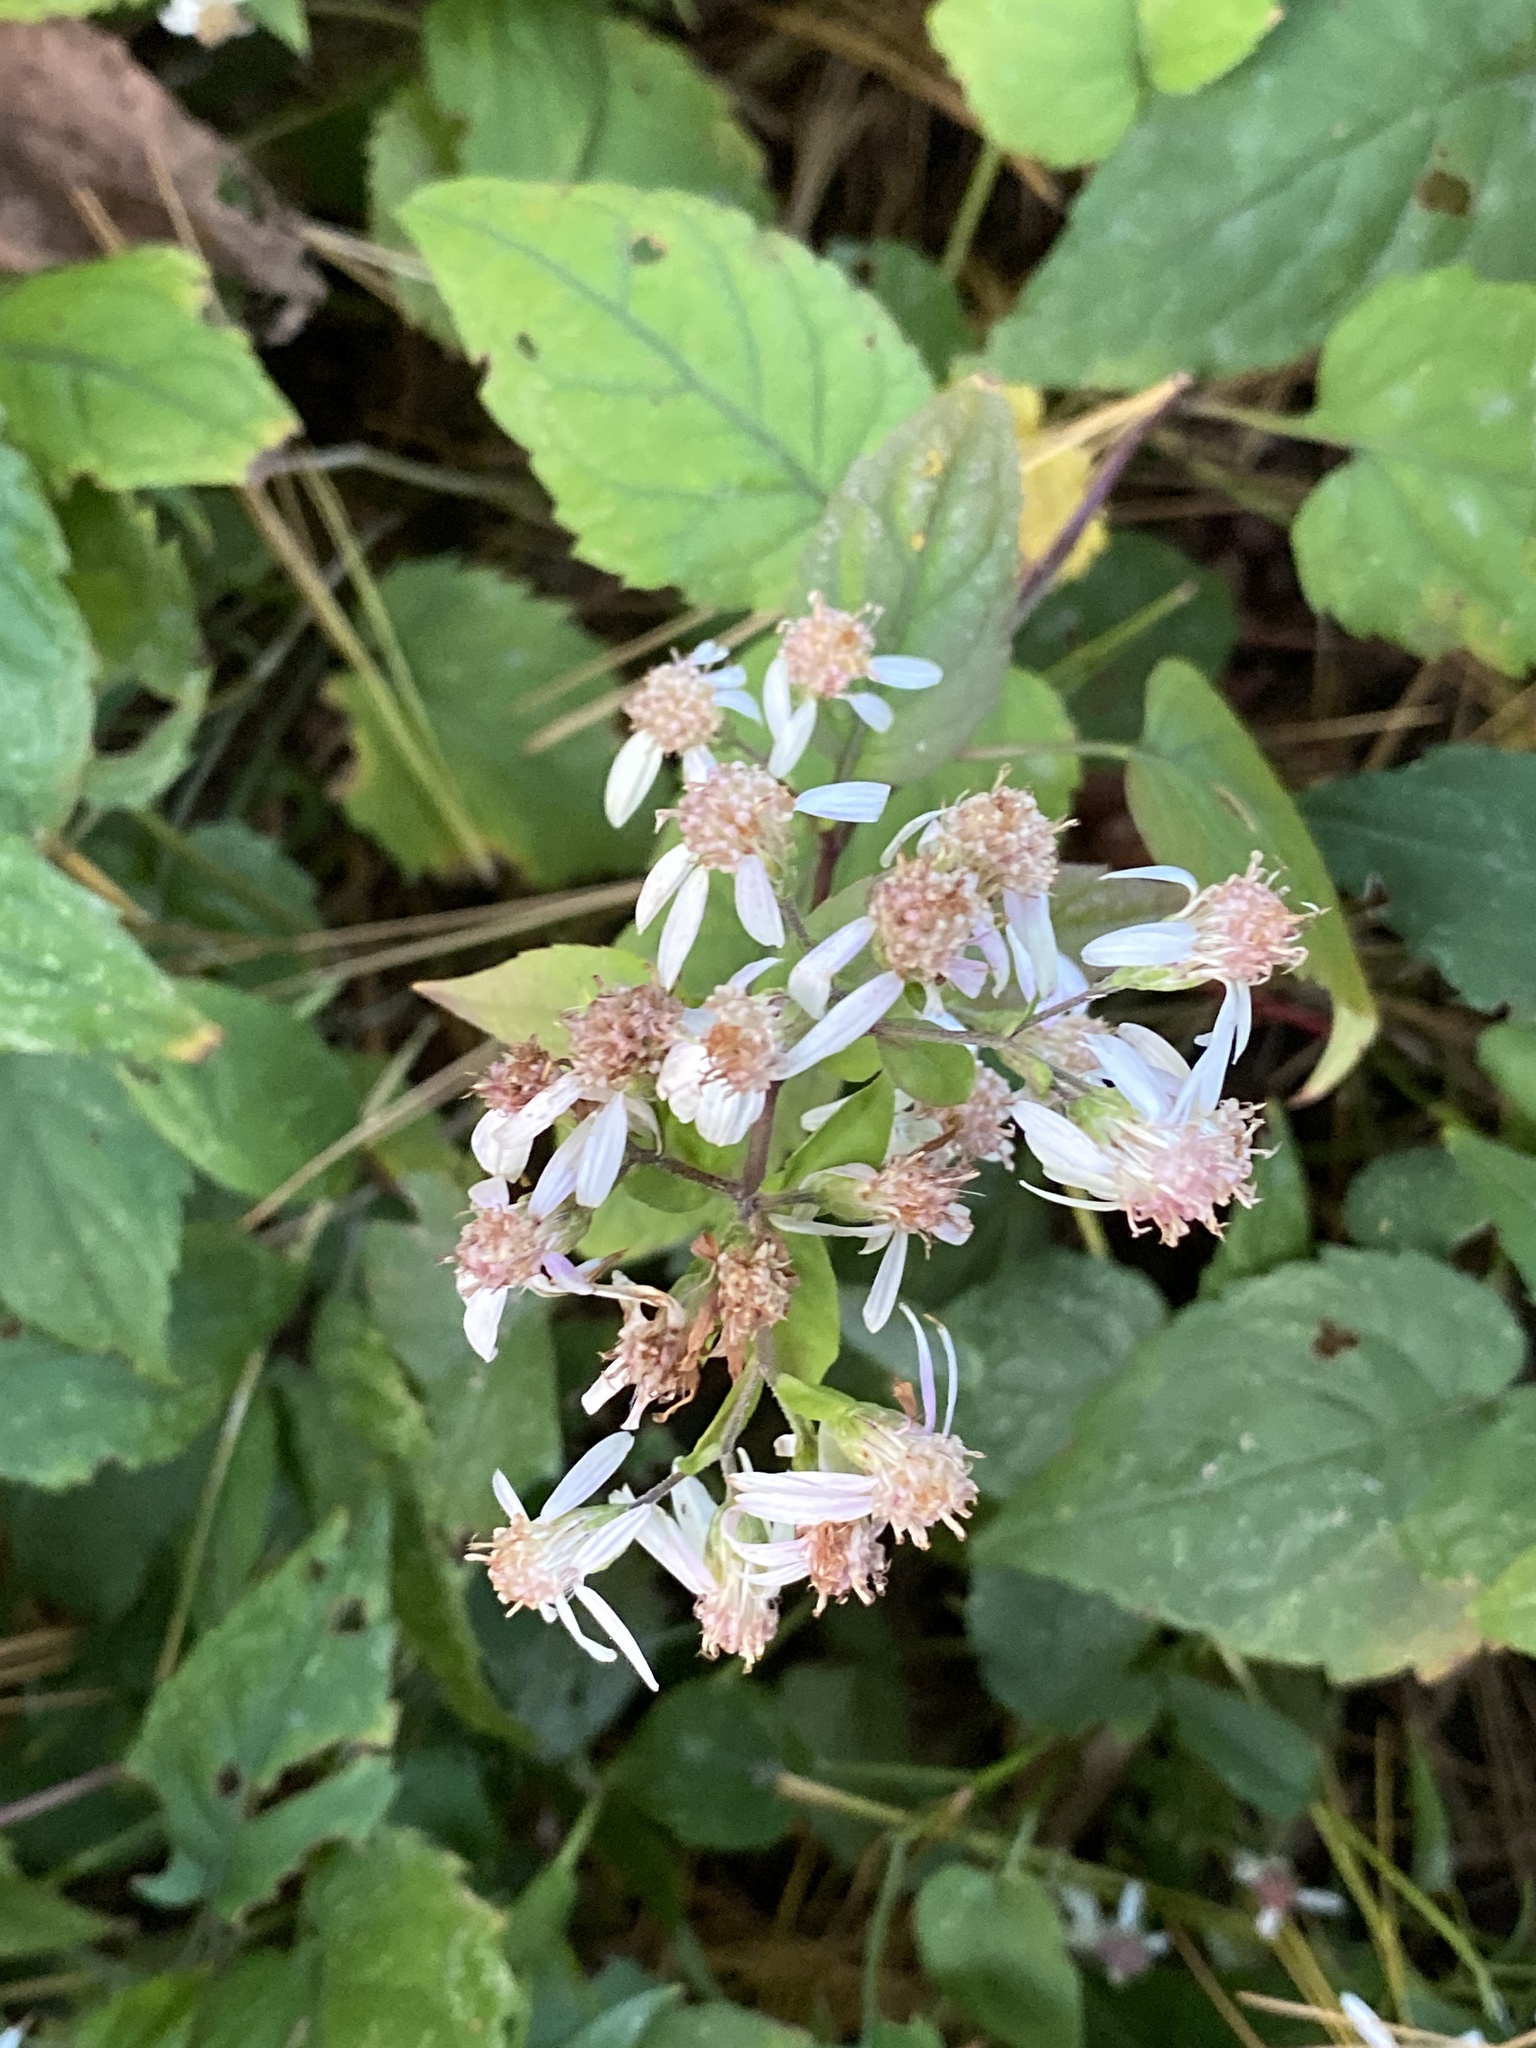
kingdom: Plantae
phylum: Tracheophyta
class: Magnoliopsida
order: Asterales
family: Asteraceae
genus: Eurybia
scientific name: Eurybia divaricata
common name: White wood aster
